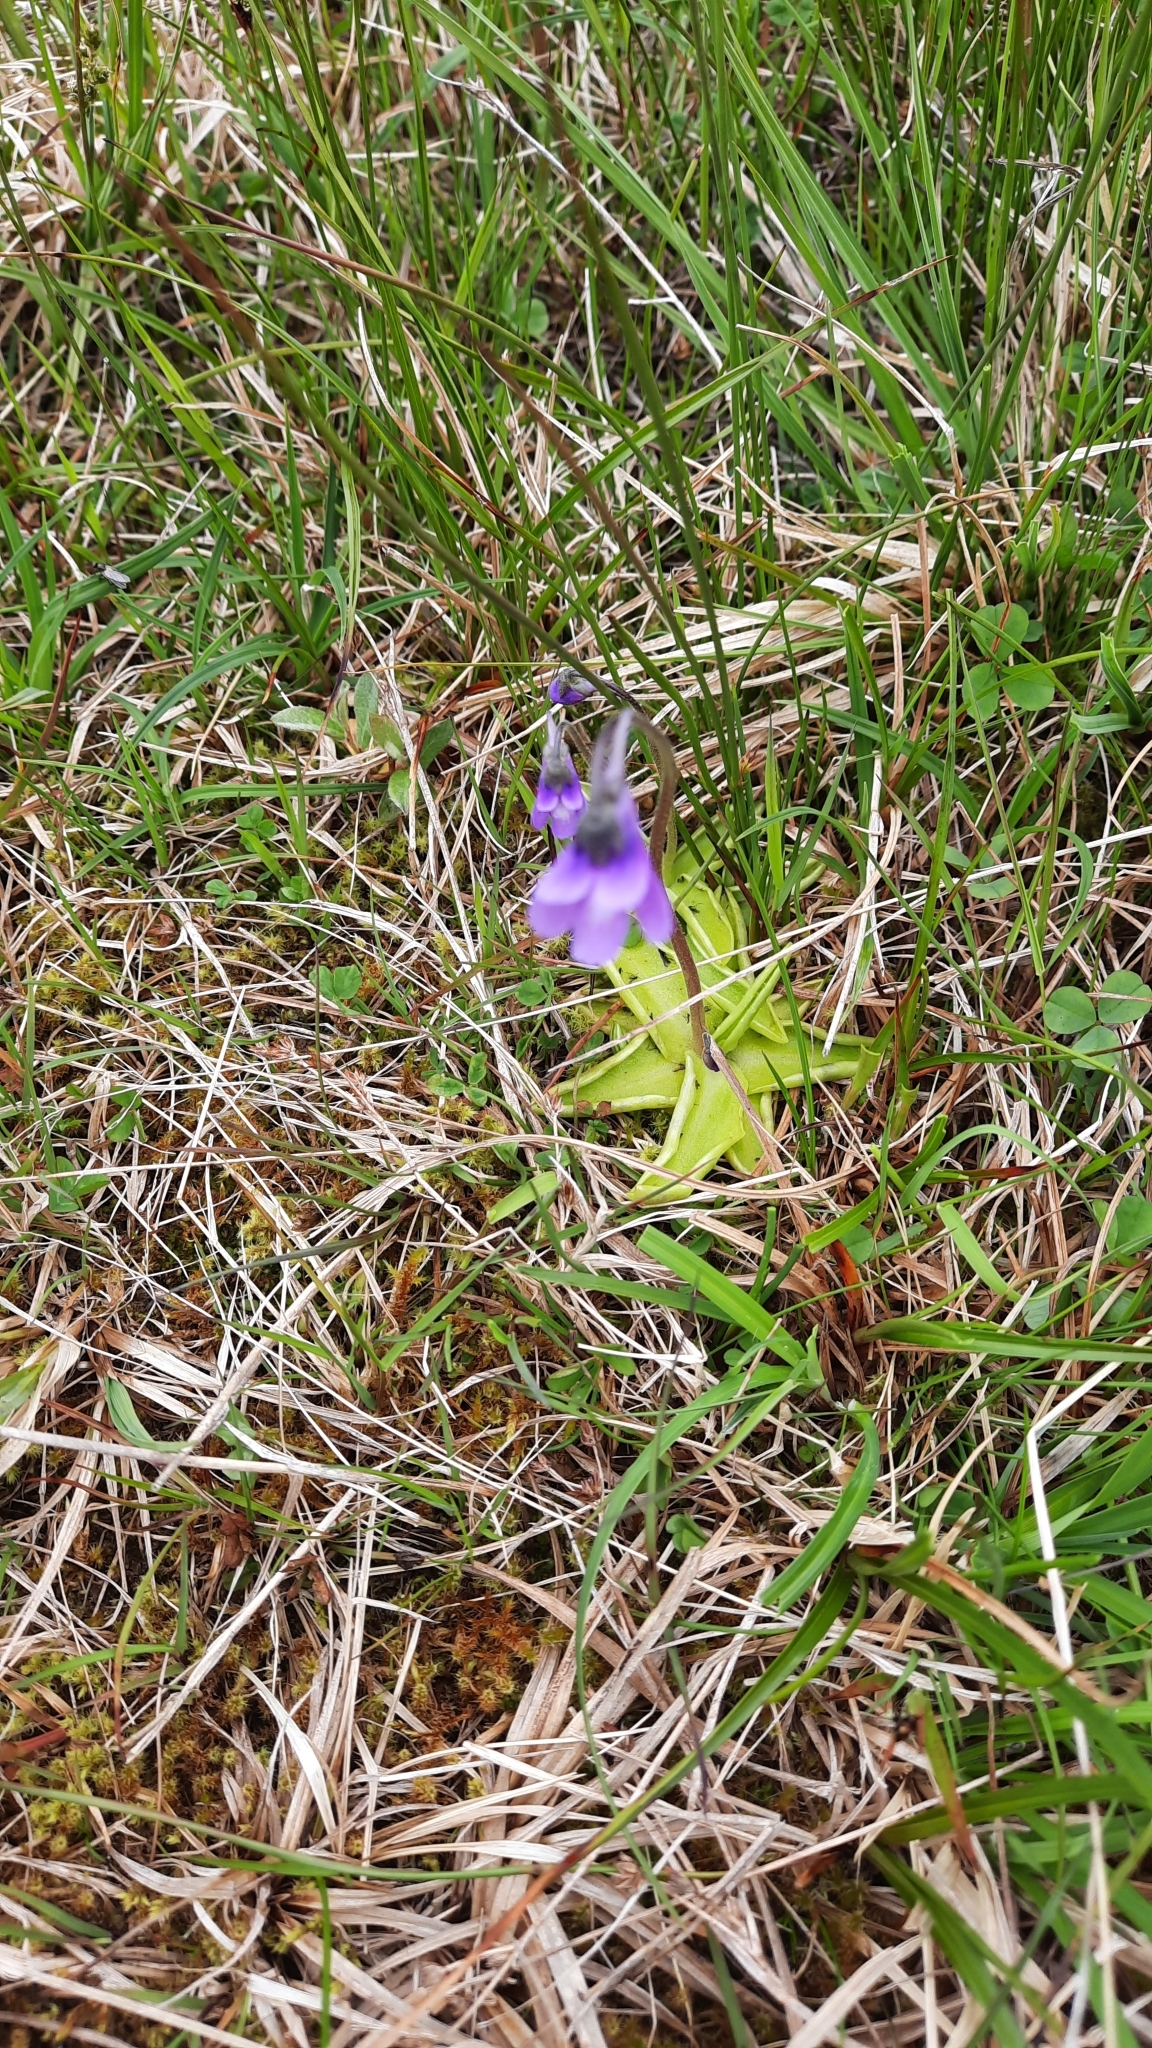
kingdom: Plantae
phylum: Tracheophyta
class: Magnoliopsida
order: Lamiales
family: Lentibulariaceae
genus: Pinguicula
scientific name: Pinguicula vulgaris
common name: Common butterwort
